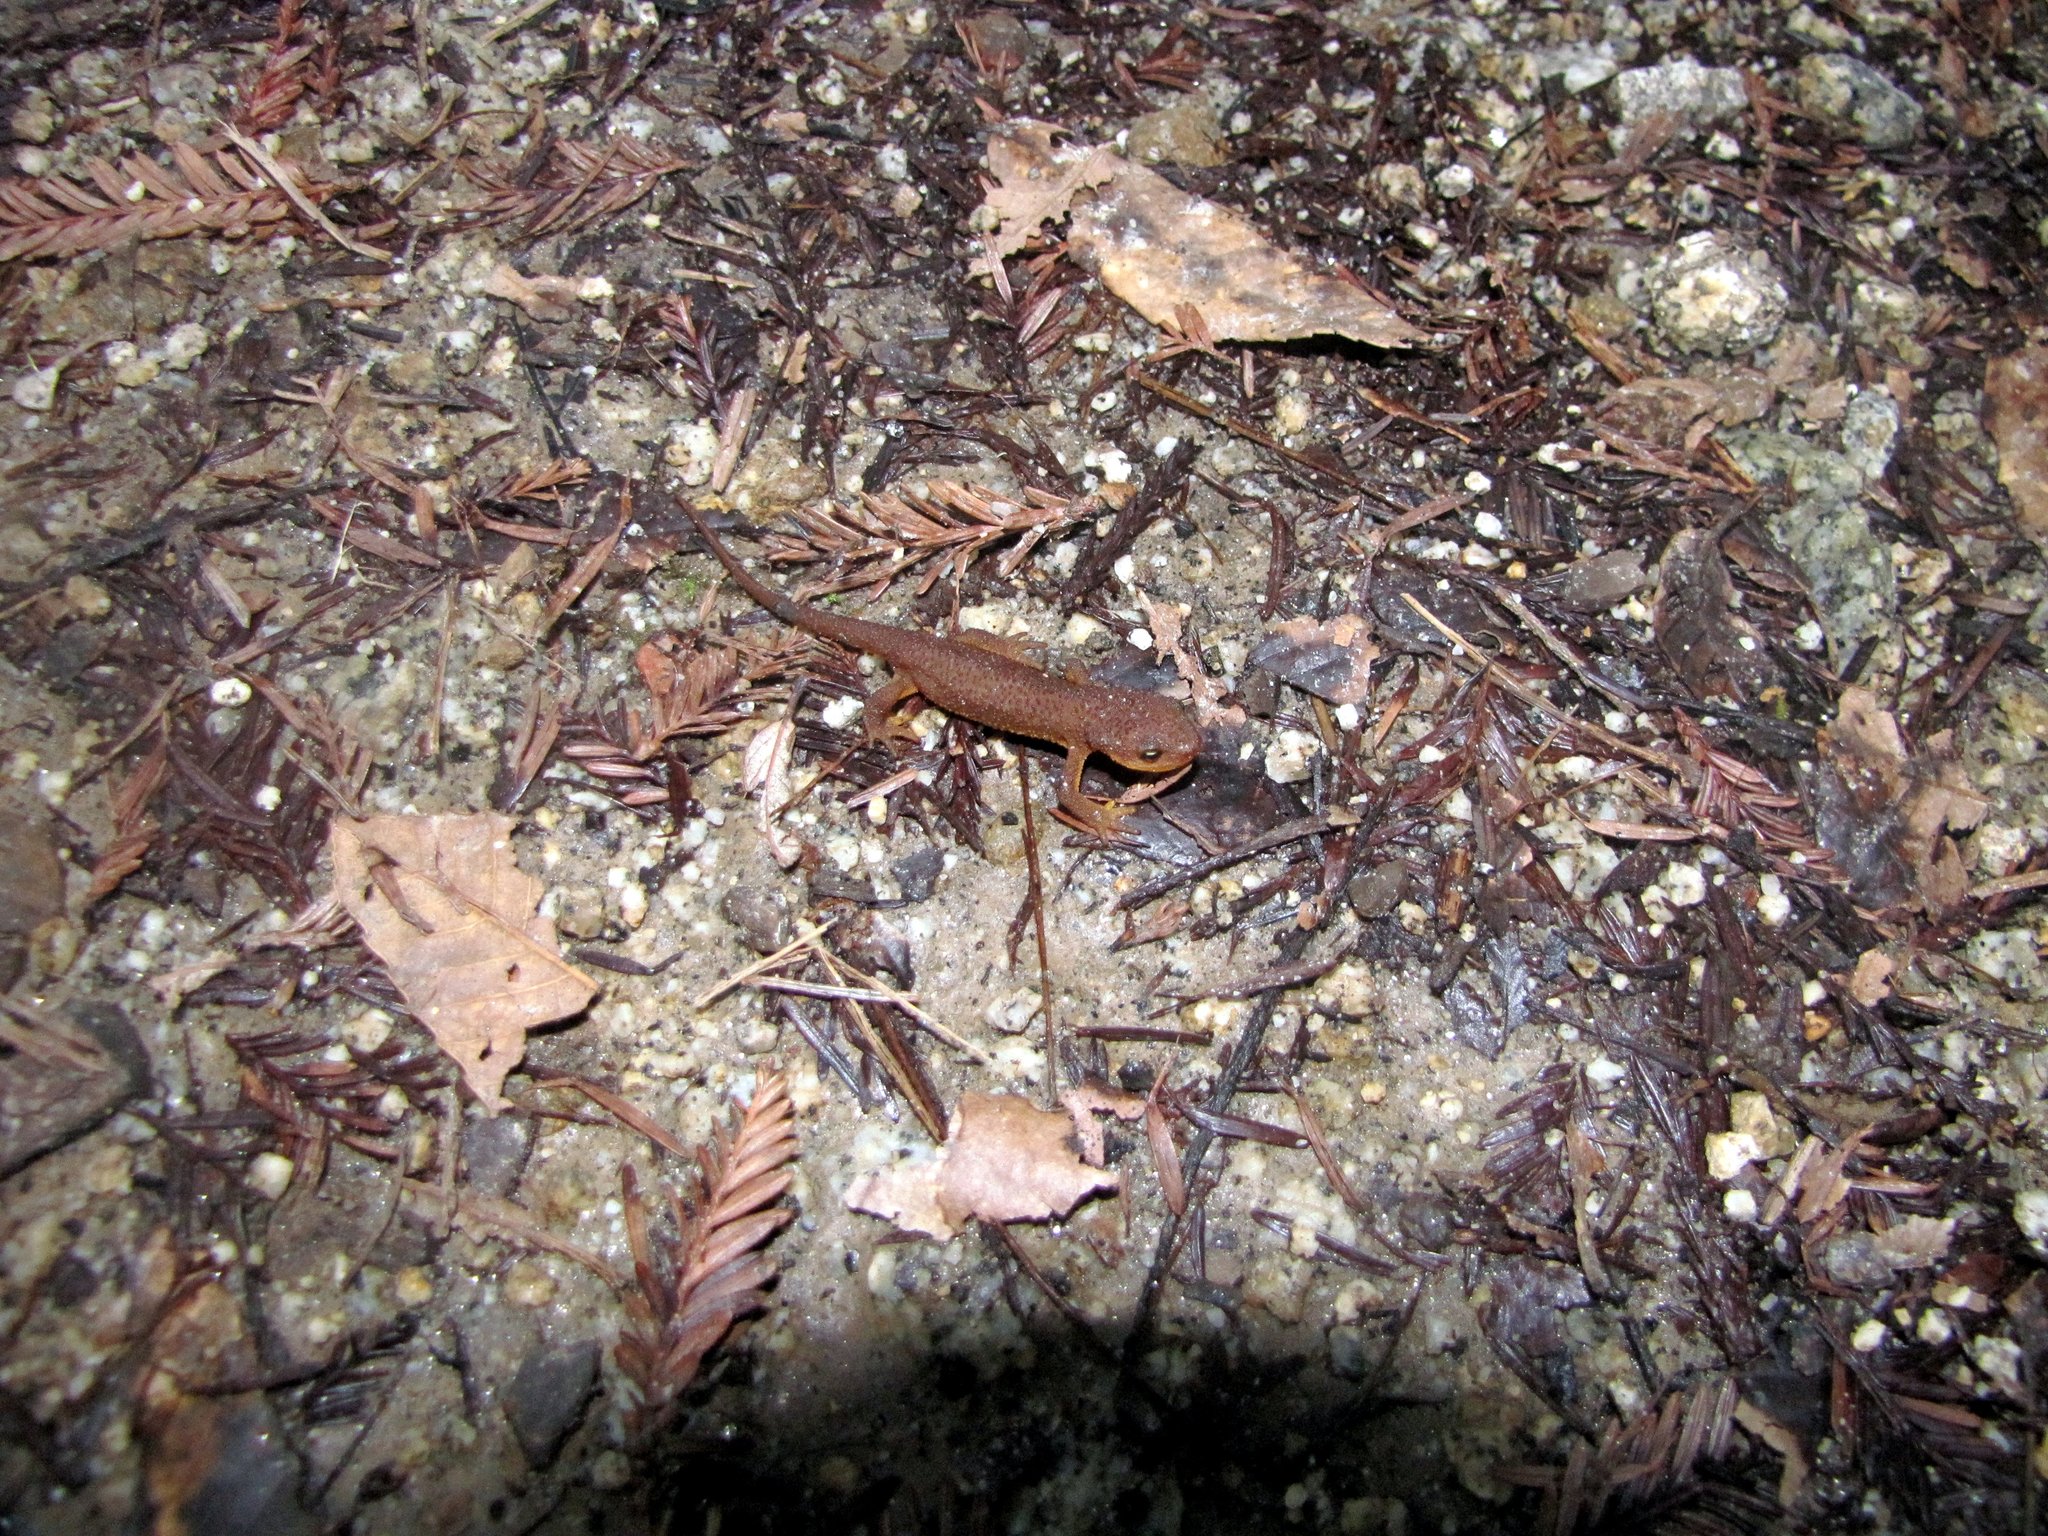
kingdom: Animalia
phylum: Chordata
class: Amphibia
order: Caudata
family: Salamandridae
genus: Taricha
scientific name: Taricha torosa
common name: California newt
